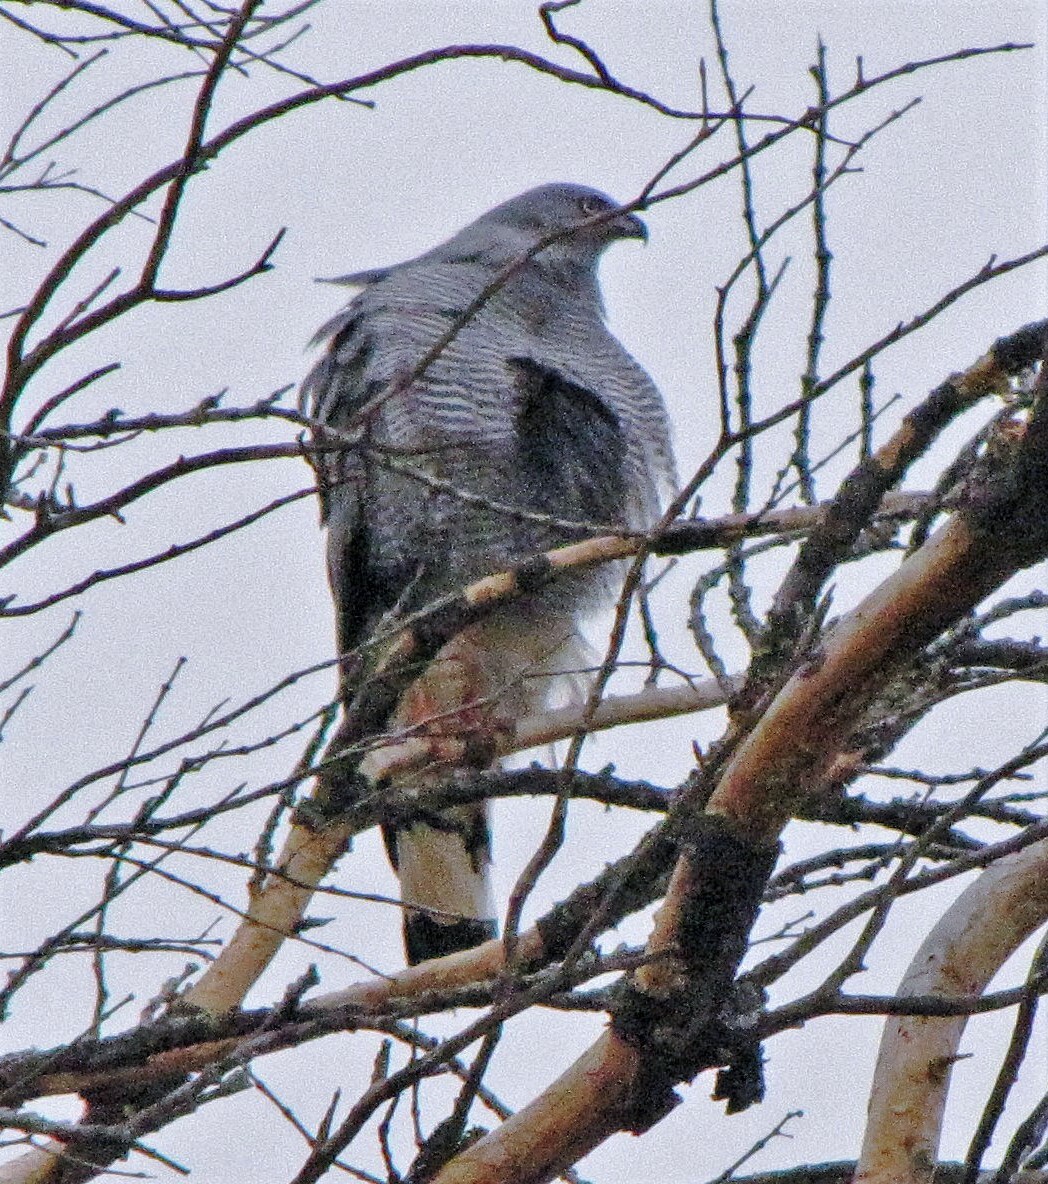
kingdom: Animalia
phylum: Chordata
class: Aves
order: Accipitriformes
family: Accipitridae
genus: Geranospiza
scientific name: Geranospiza caerulescens
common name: Crane hawk
